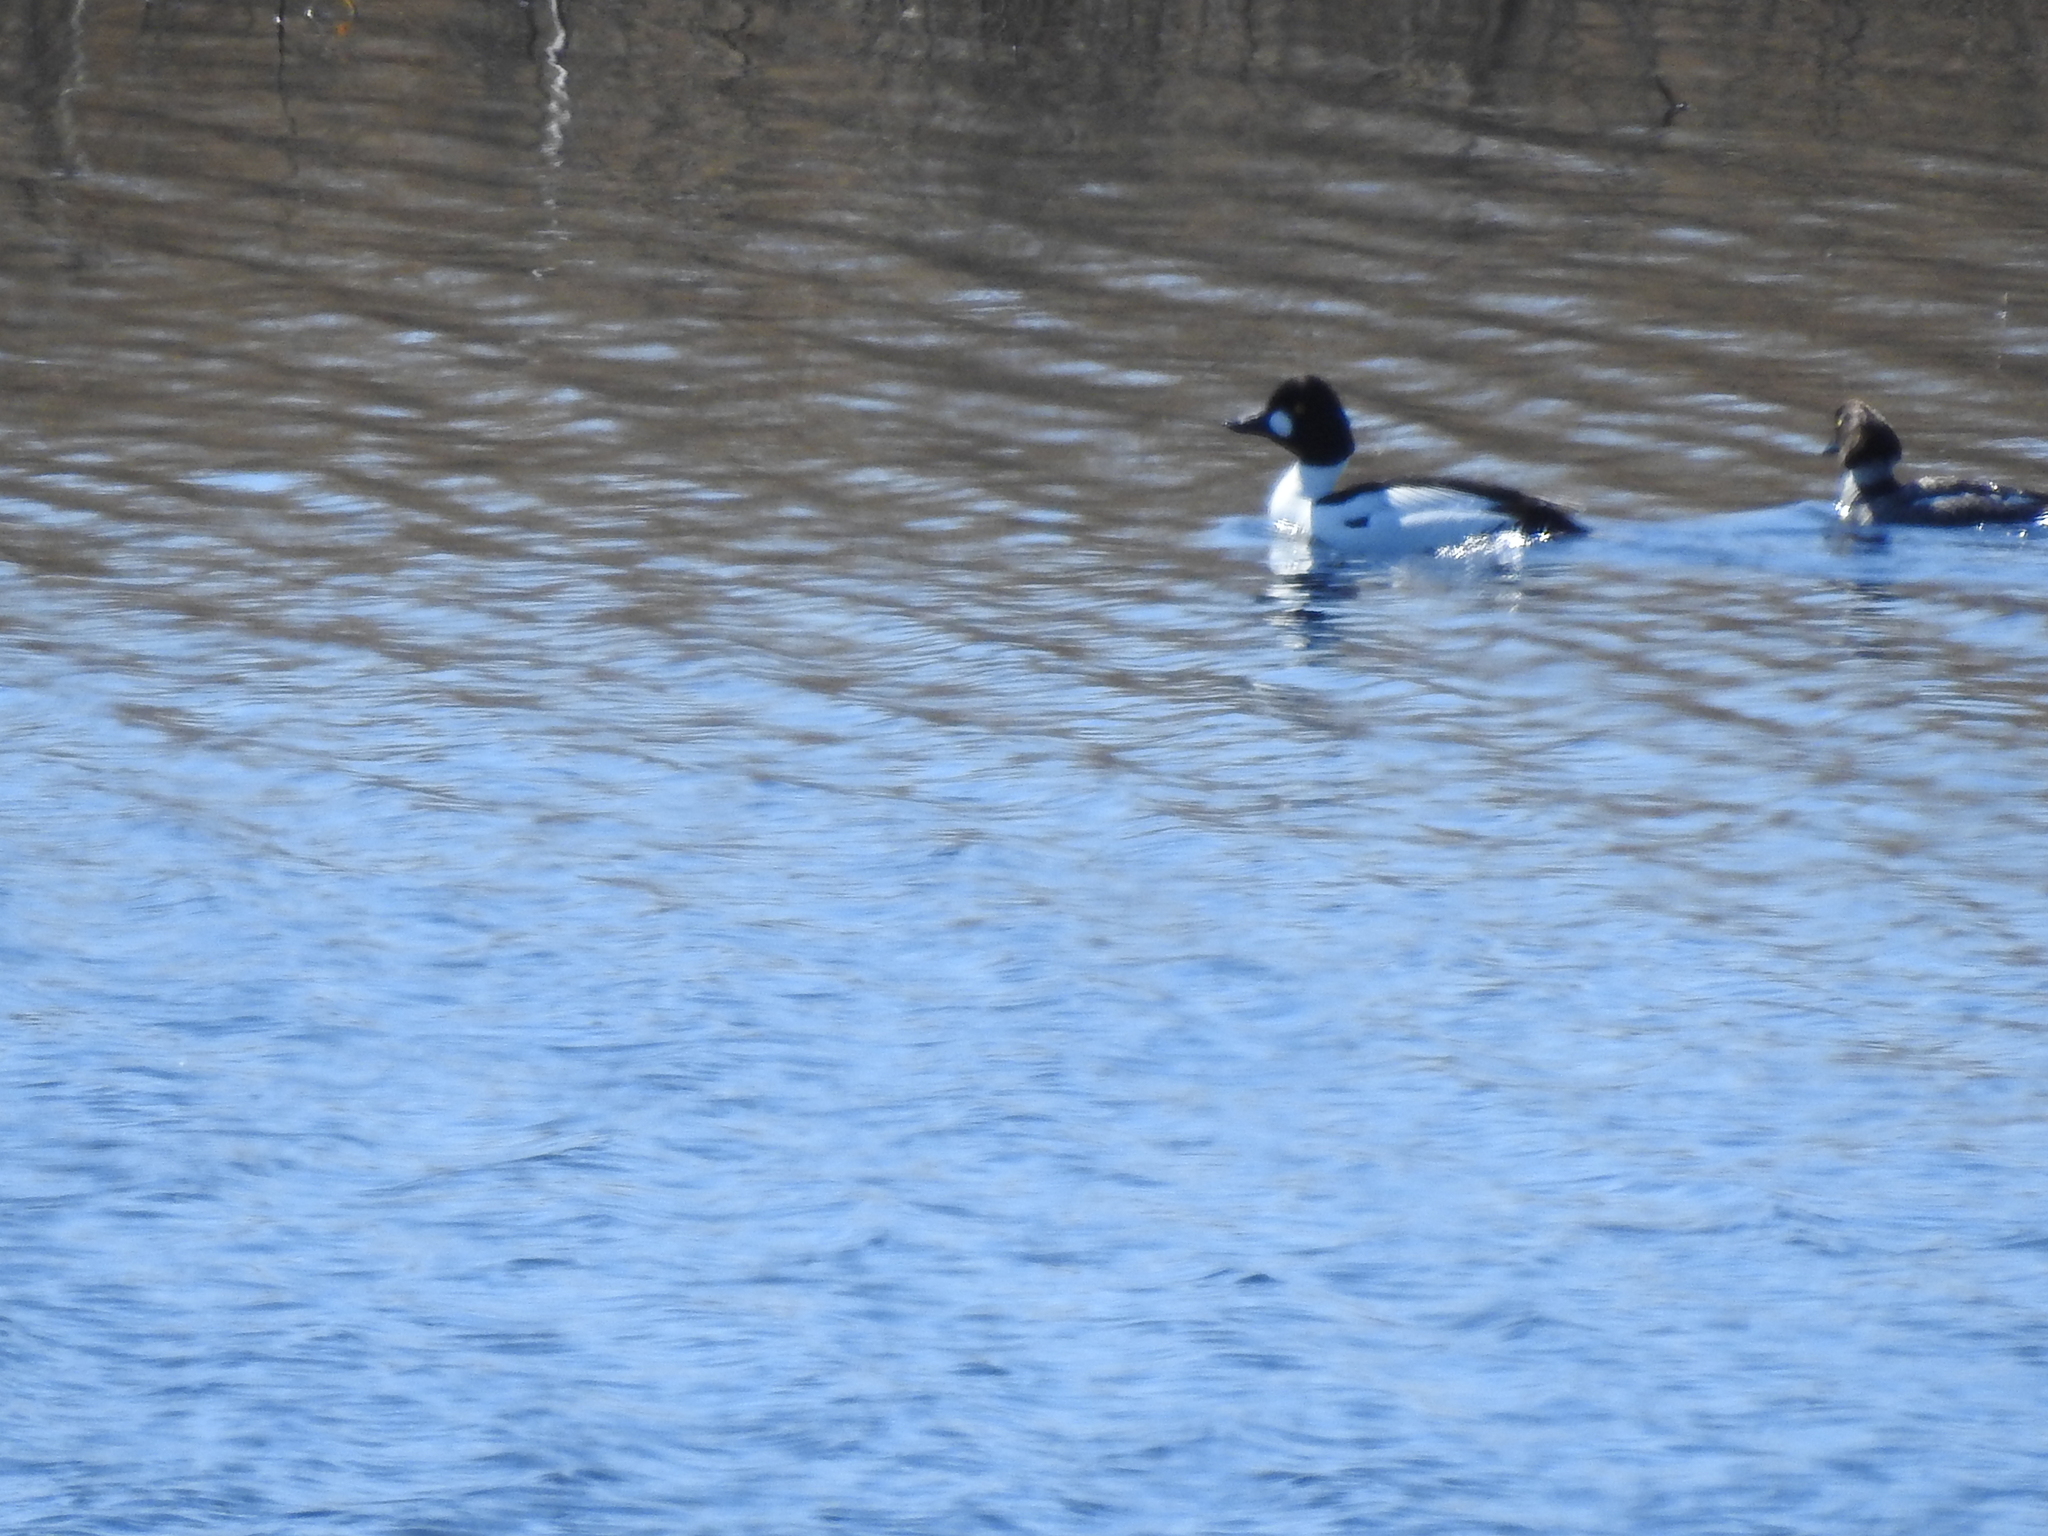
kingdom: Animalia
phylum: Chordata
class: Aves
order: Anseriformes
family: Anatidae
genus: Bucephala
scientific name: Bucephala clangula
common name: Common goldeneye
